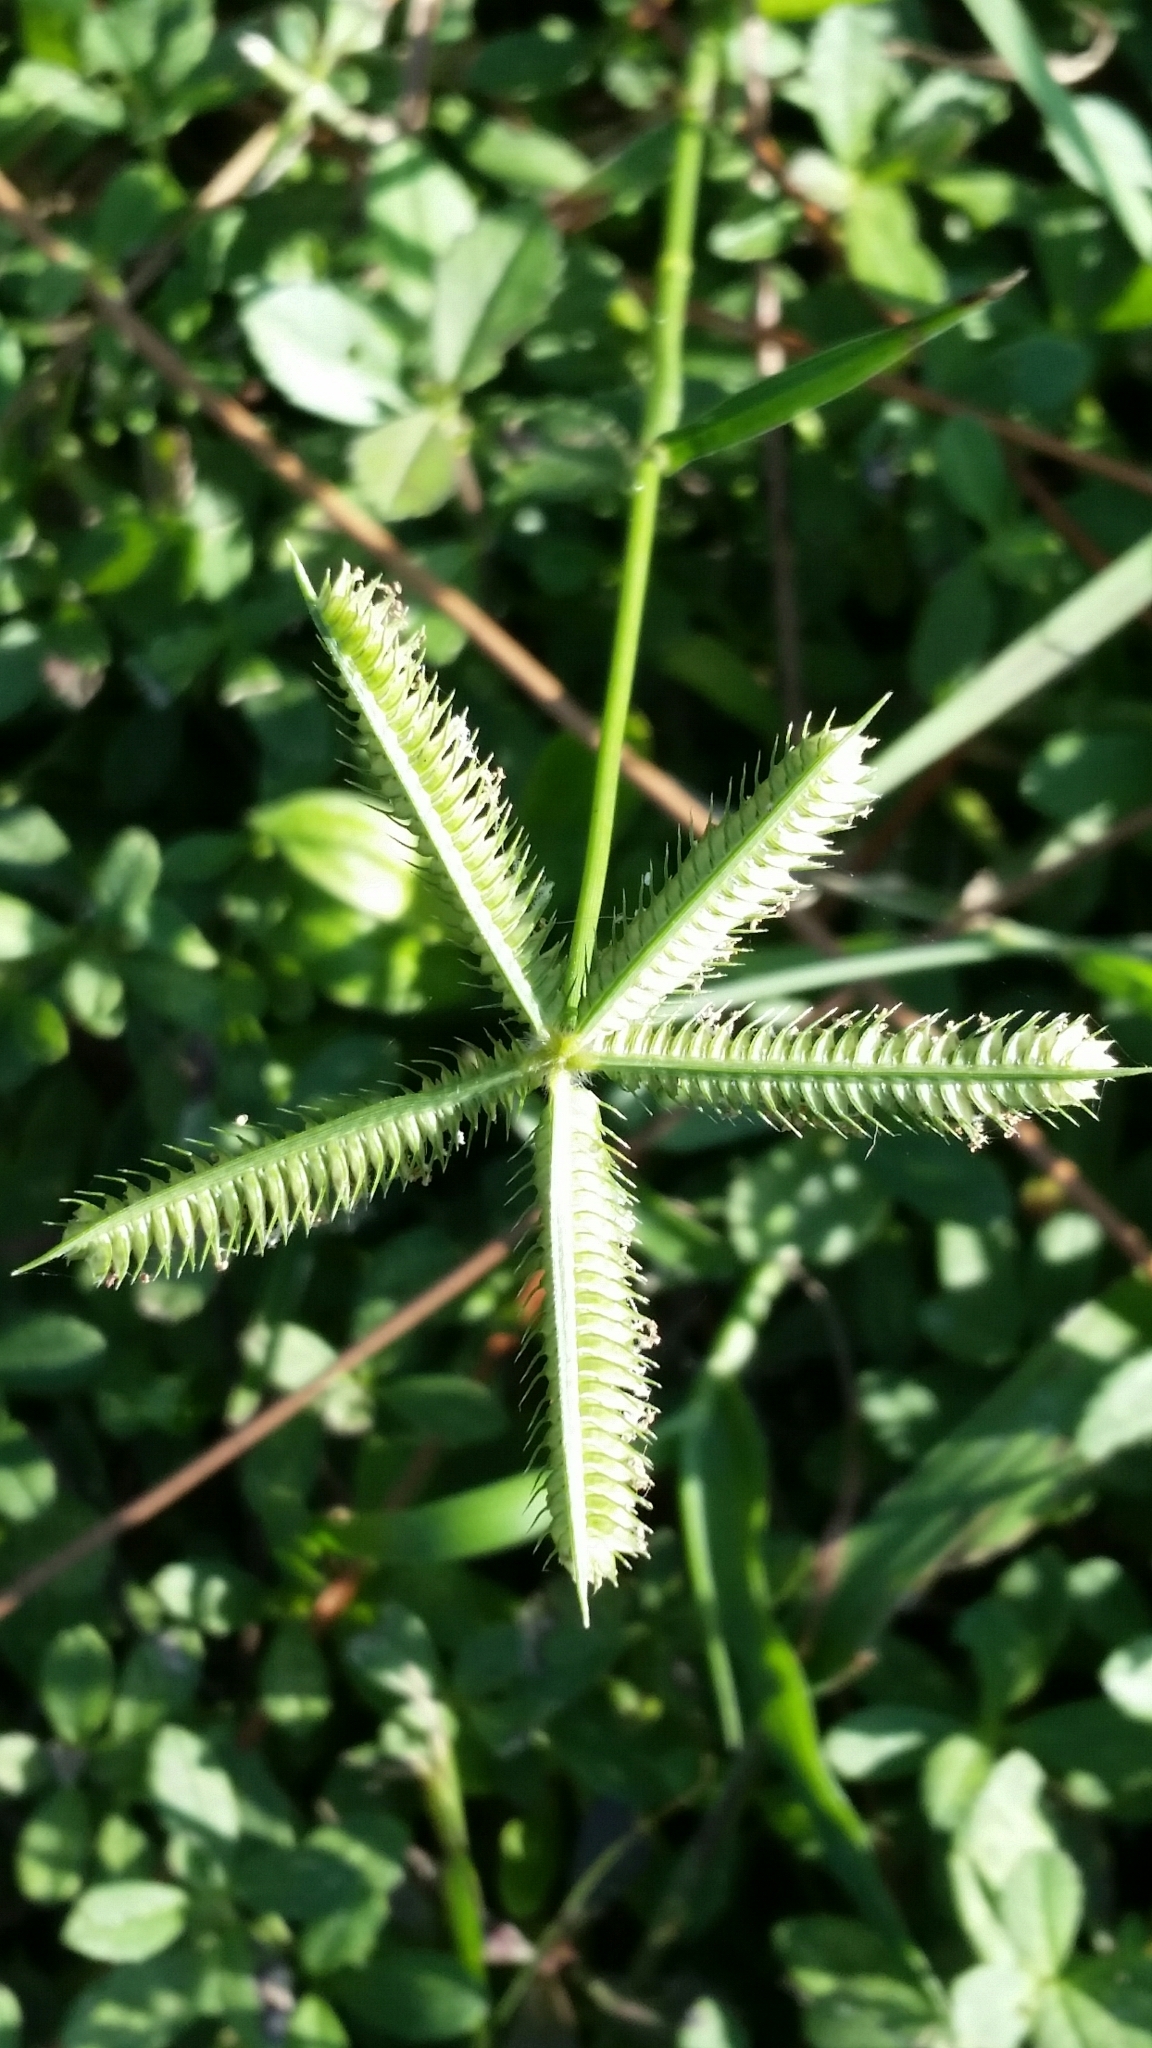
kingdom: Plantae
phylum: Tracheophyta
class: Liliopsida
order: Poales
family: Poaceae
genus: Dactyloctenium
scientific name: Dactyloctenium aegyptium
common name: Egyptian grass
